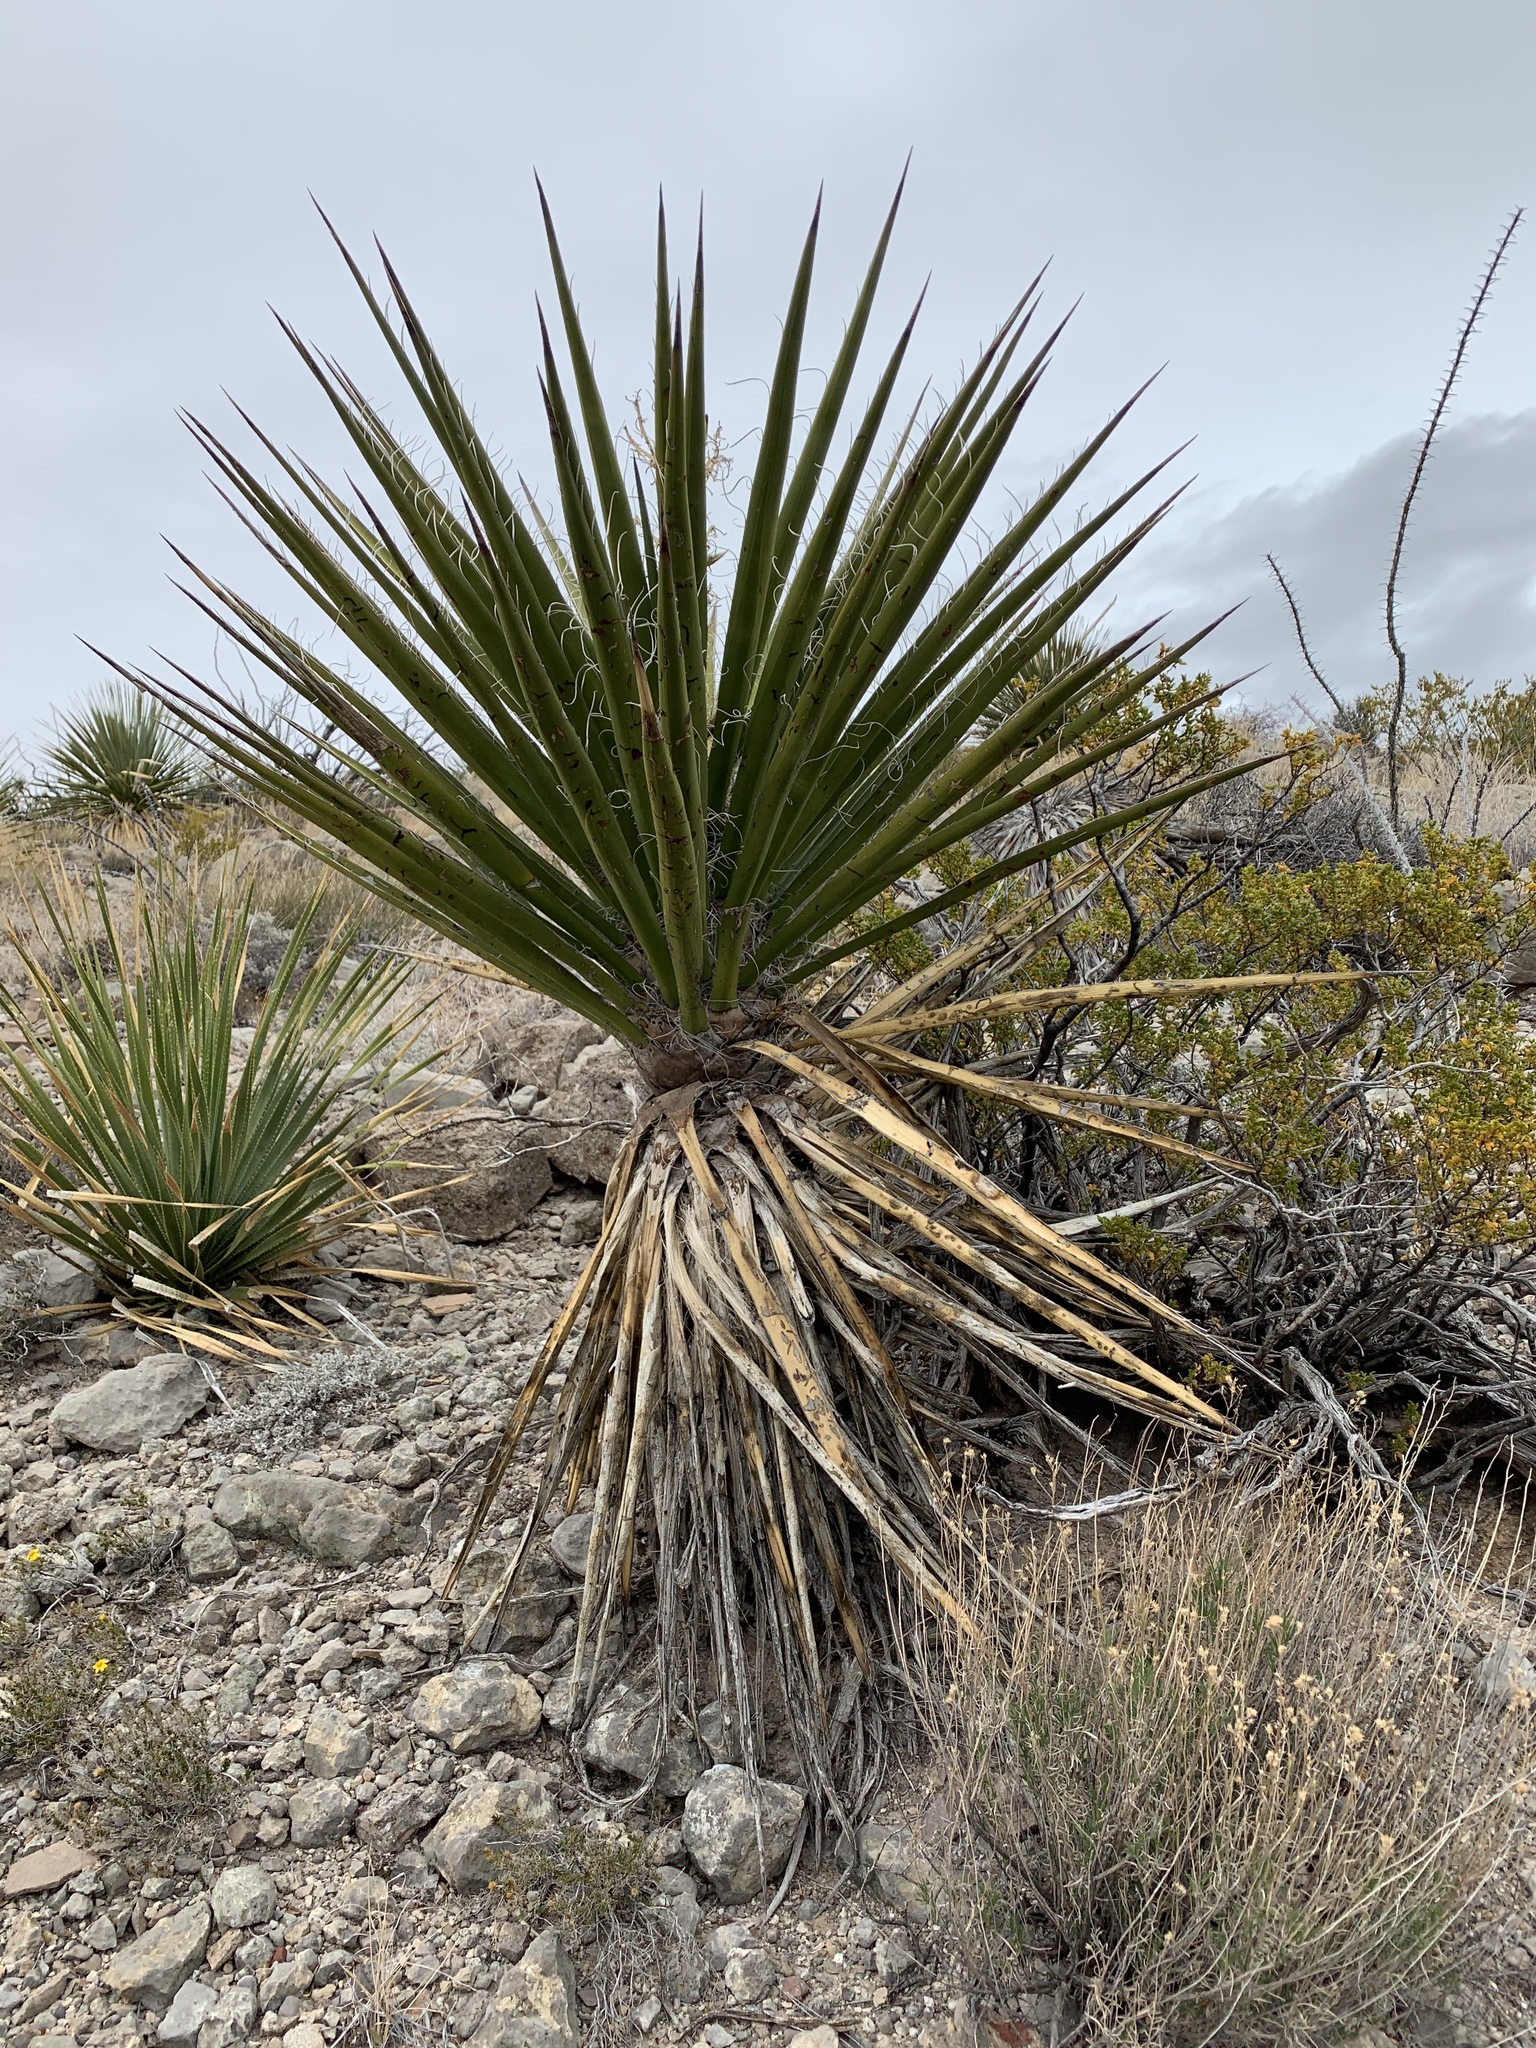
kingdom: Plantae
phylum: Tracheophyta
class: Liliopsida
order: Asparagales
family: Asparagaceae
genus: Yucca
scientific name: Yucca treculiana
